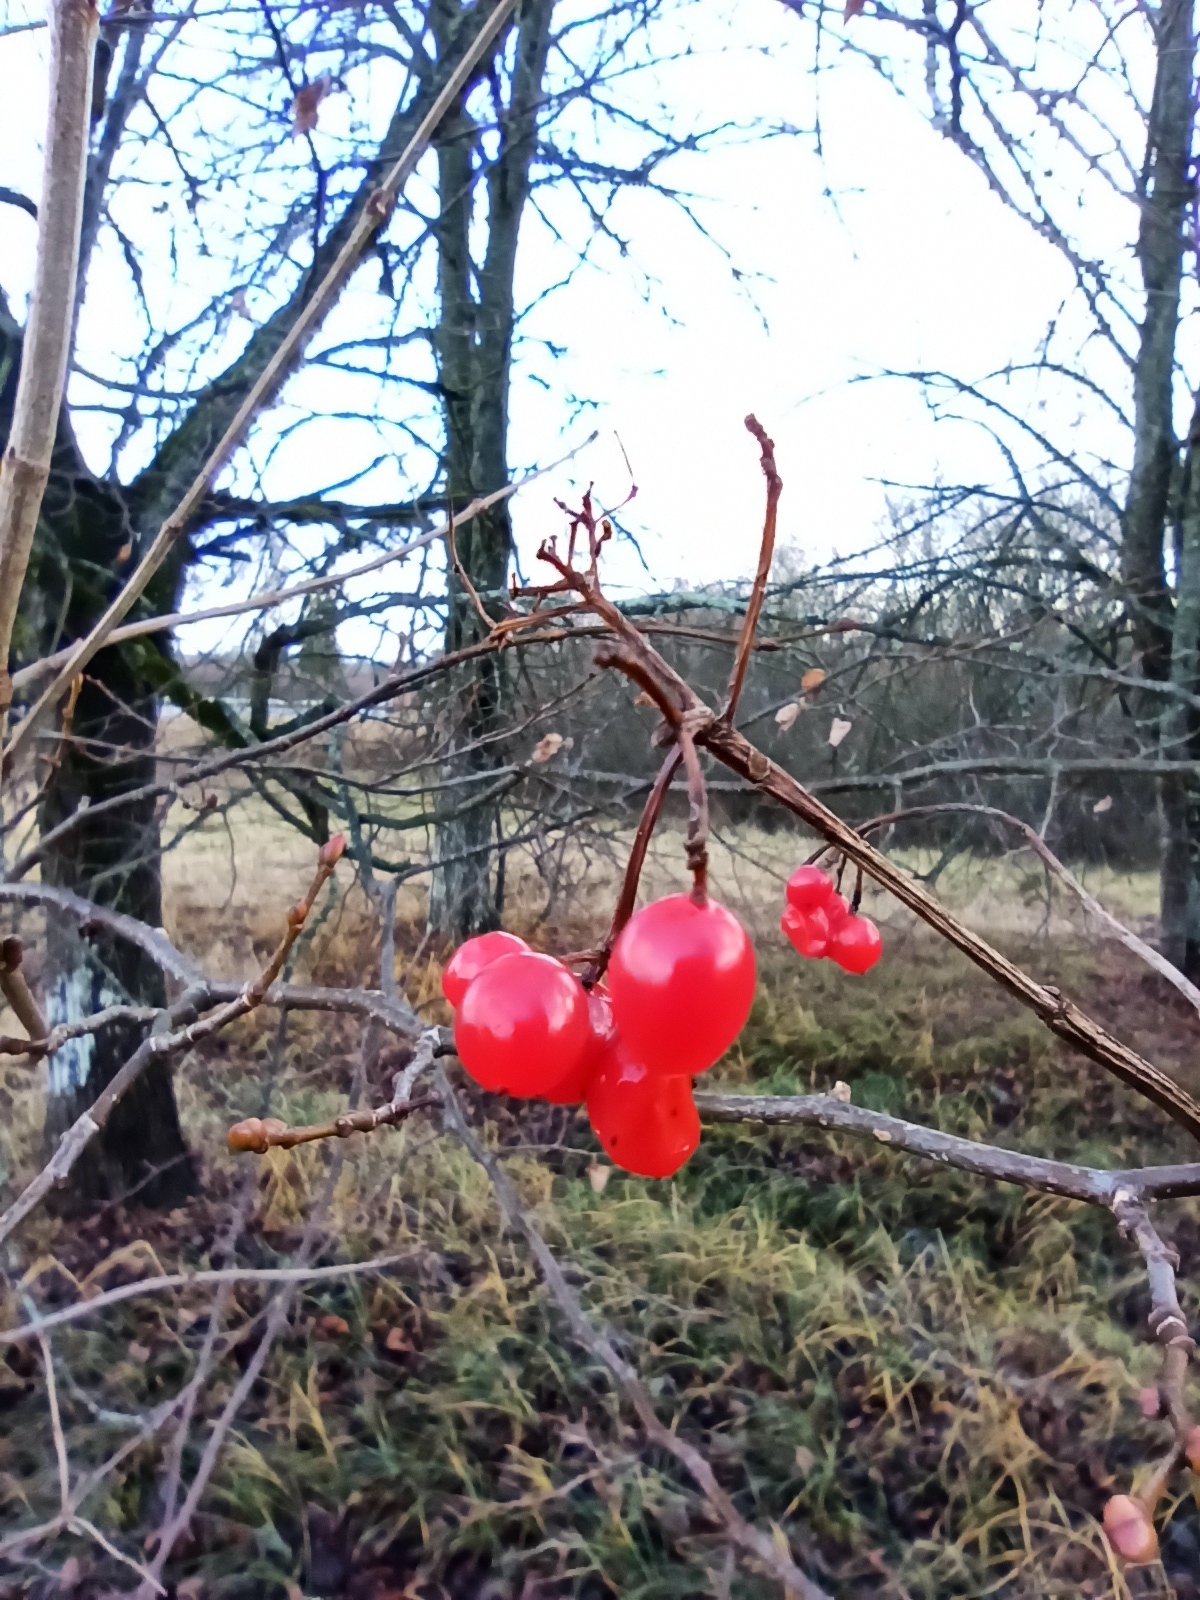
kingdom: Plantae
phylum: Tracheophyta
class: Magnoliopsida
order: Dipsacales
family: Viburnaceae
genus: Viburnum
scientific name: Viburnum opulus
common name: Guelder-rose
